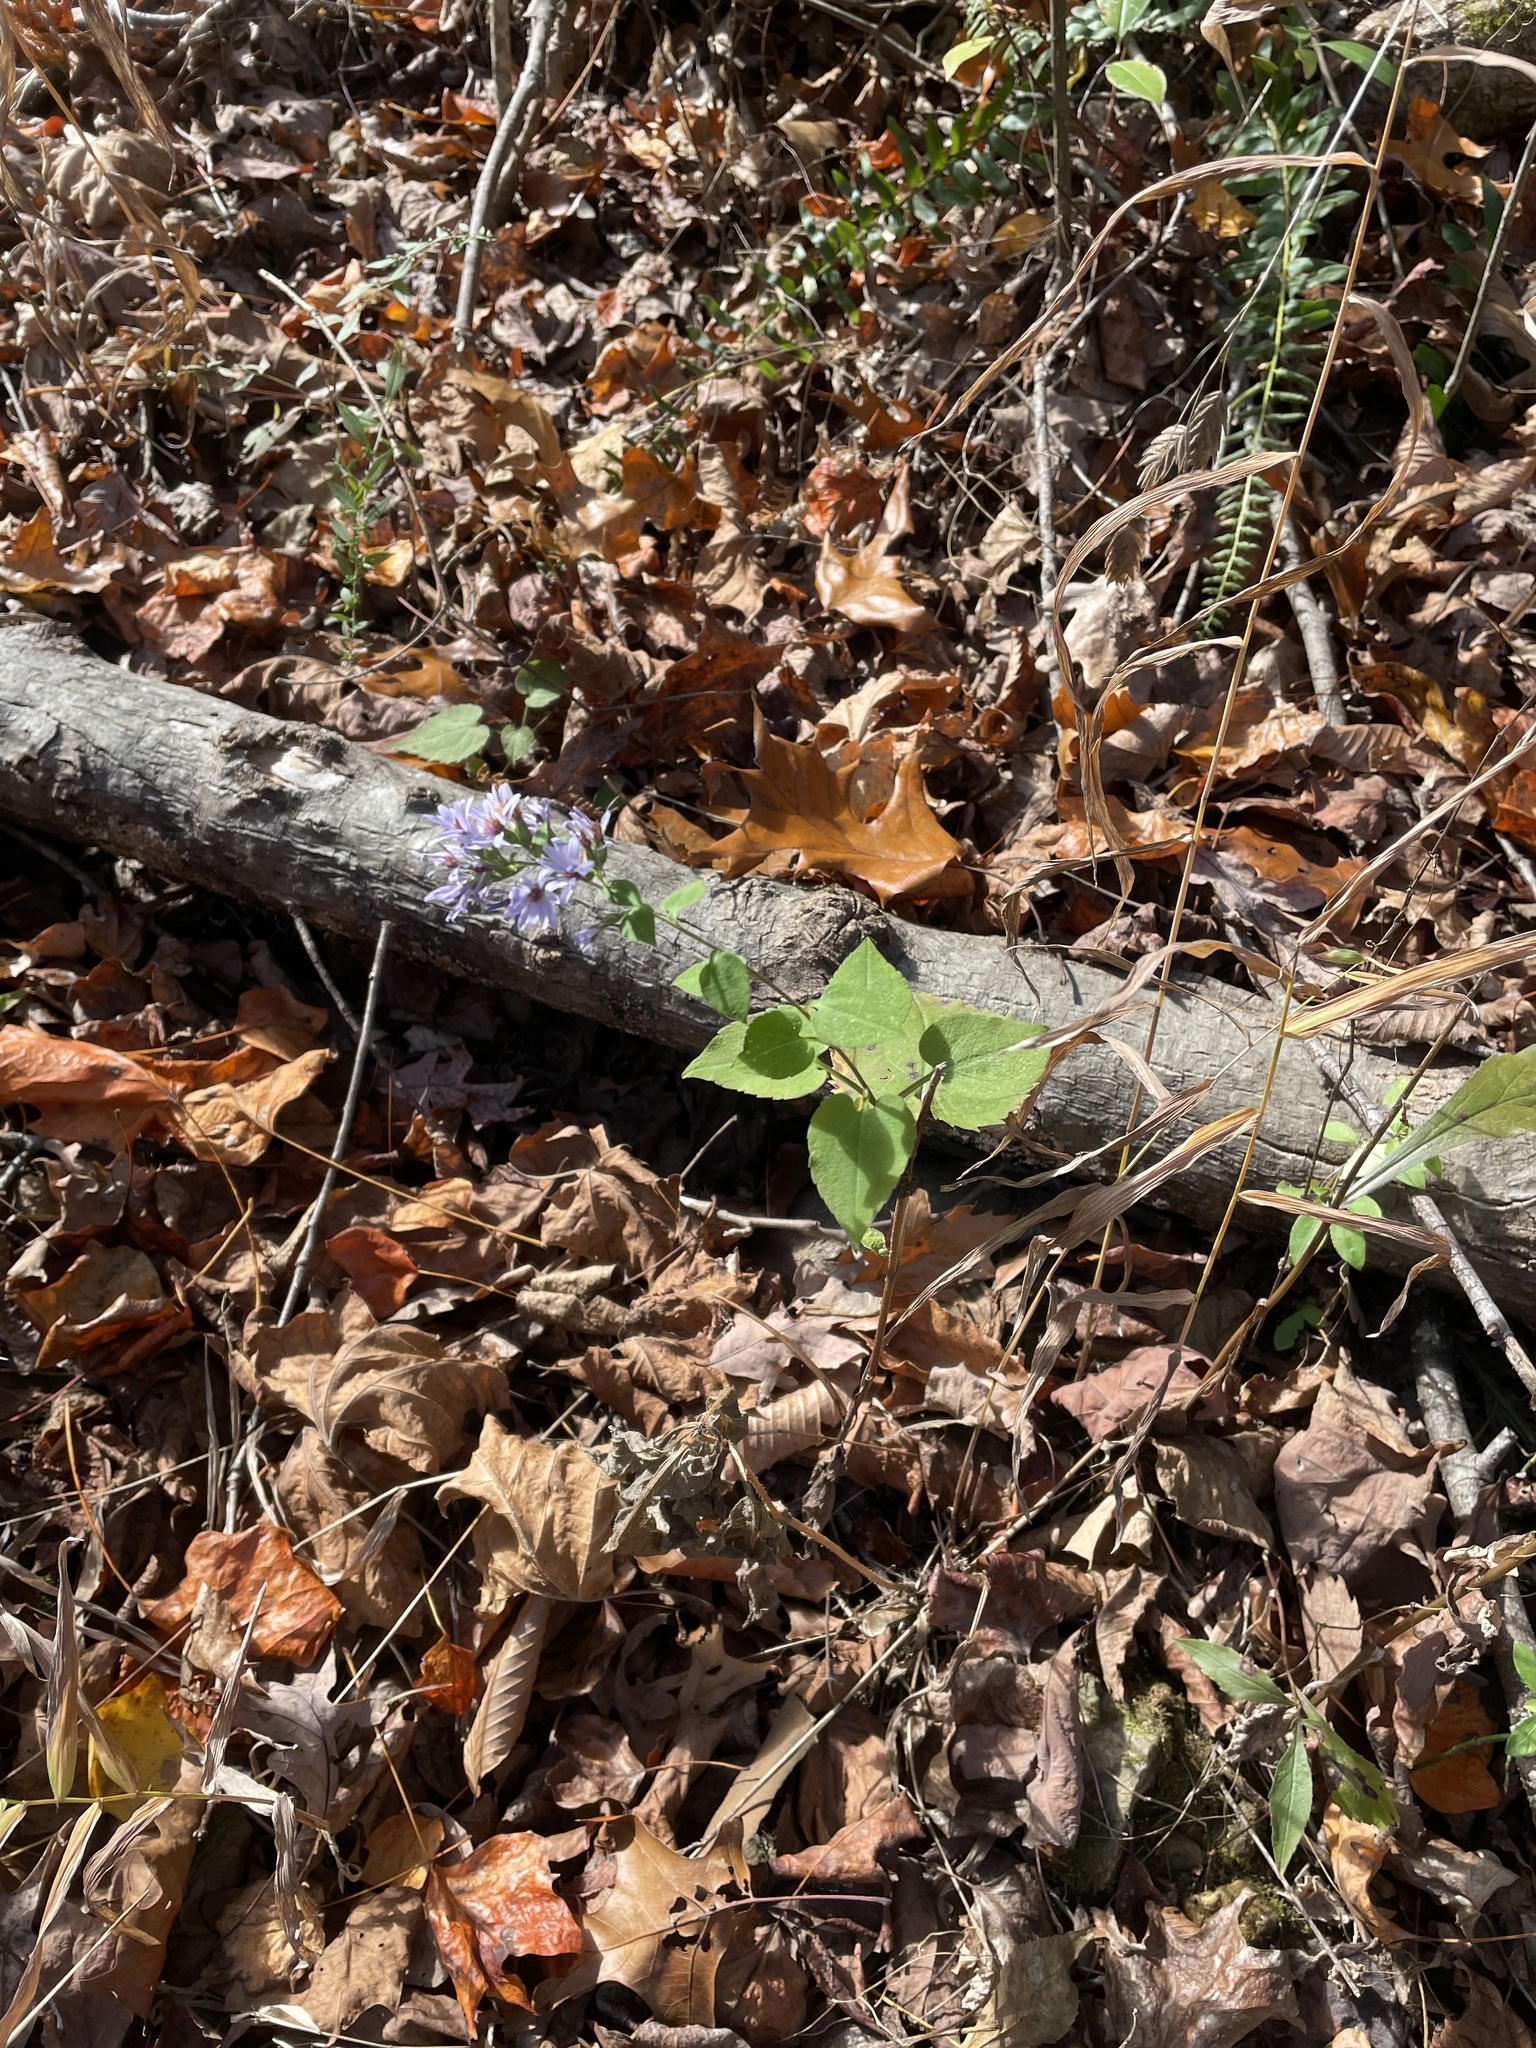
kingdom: Plantae
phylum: Tracheophyta
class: Magnoliopsida
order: Asterales
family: Asteraceae
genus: Symphyotrichum
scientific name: Symphyotrichum cordifolium
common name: Beeweed
